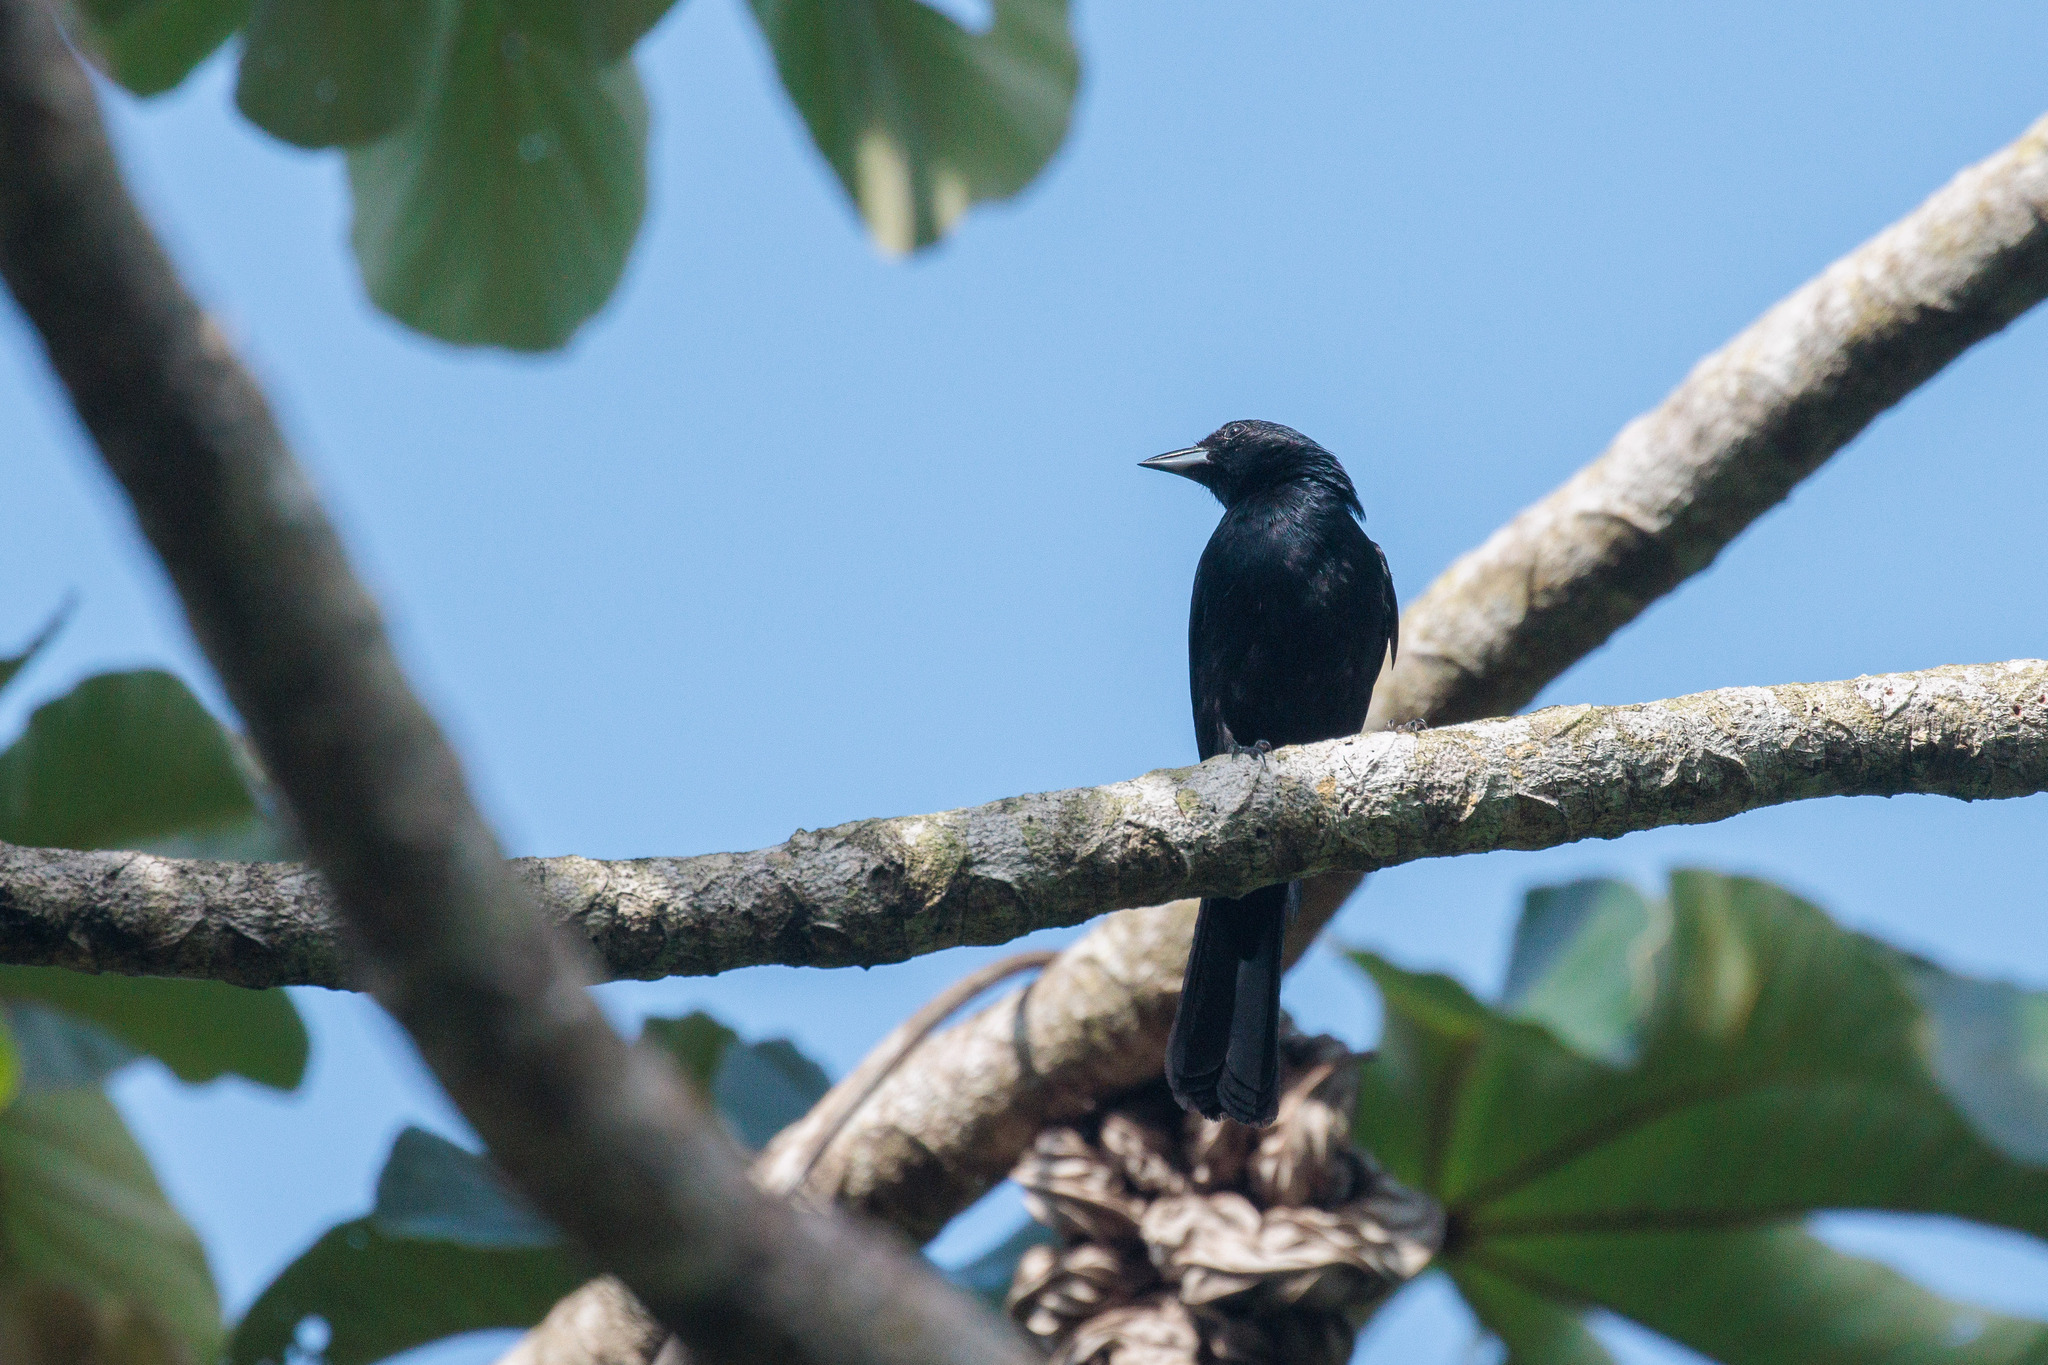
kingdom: Animalia
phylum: Chordata
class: Aves
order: Passeriformes
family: Thraupidae
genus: Tachyphonus
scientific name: Tachyphonus rufus
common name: White-lined tanager
